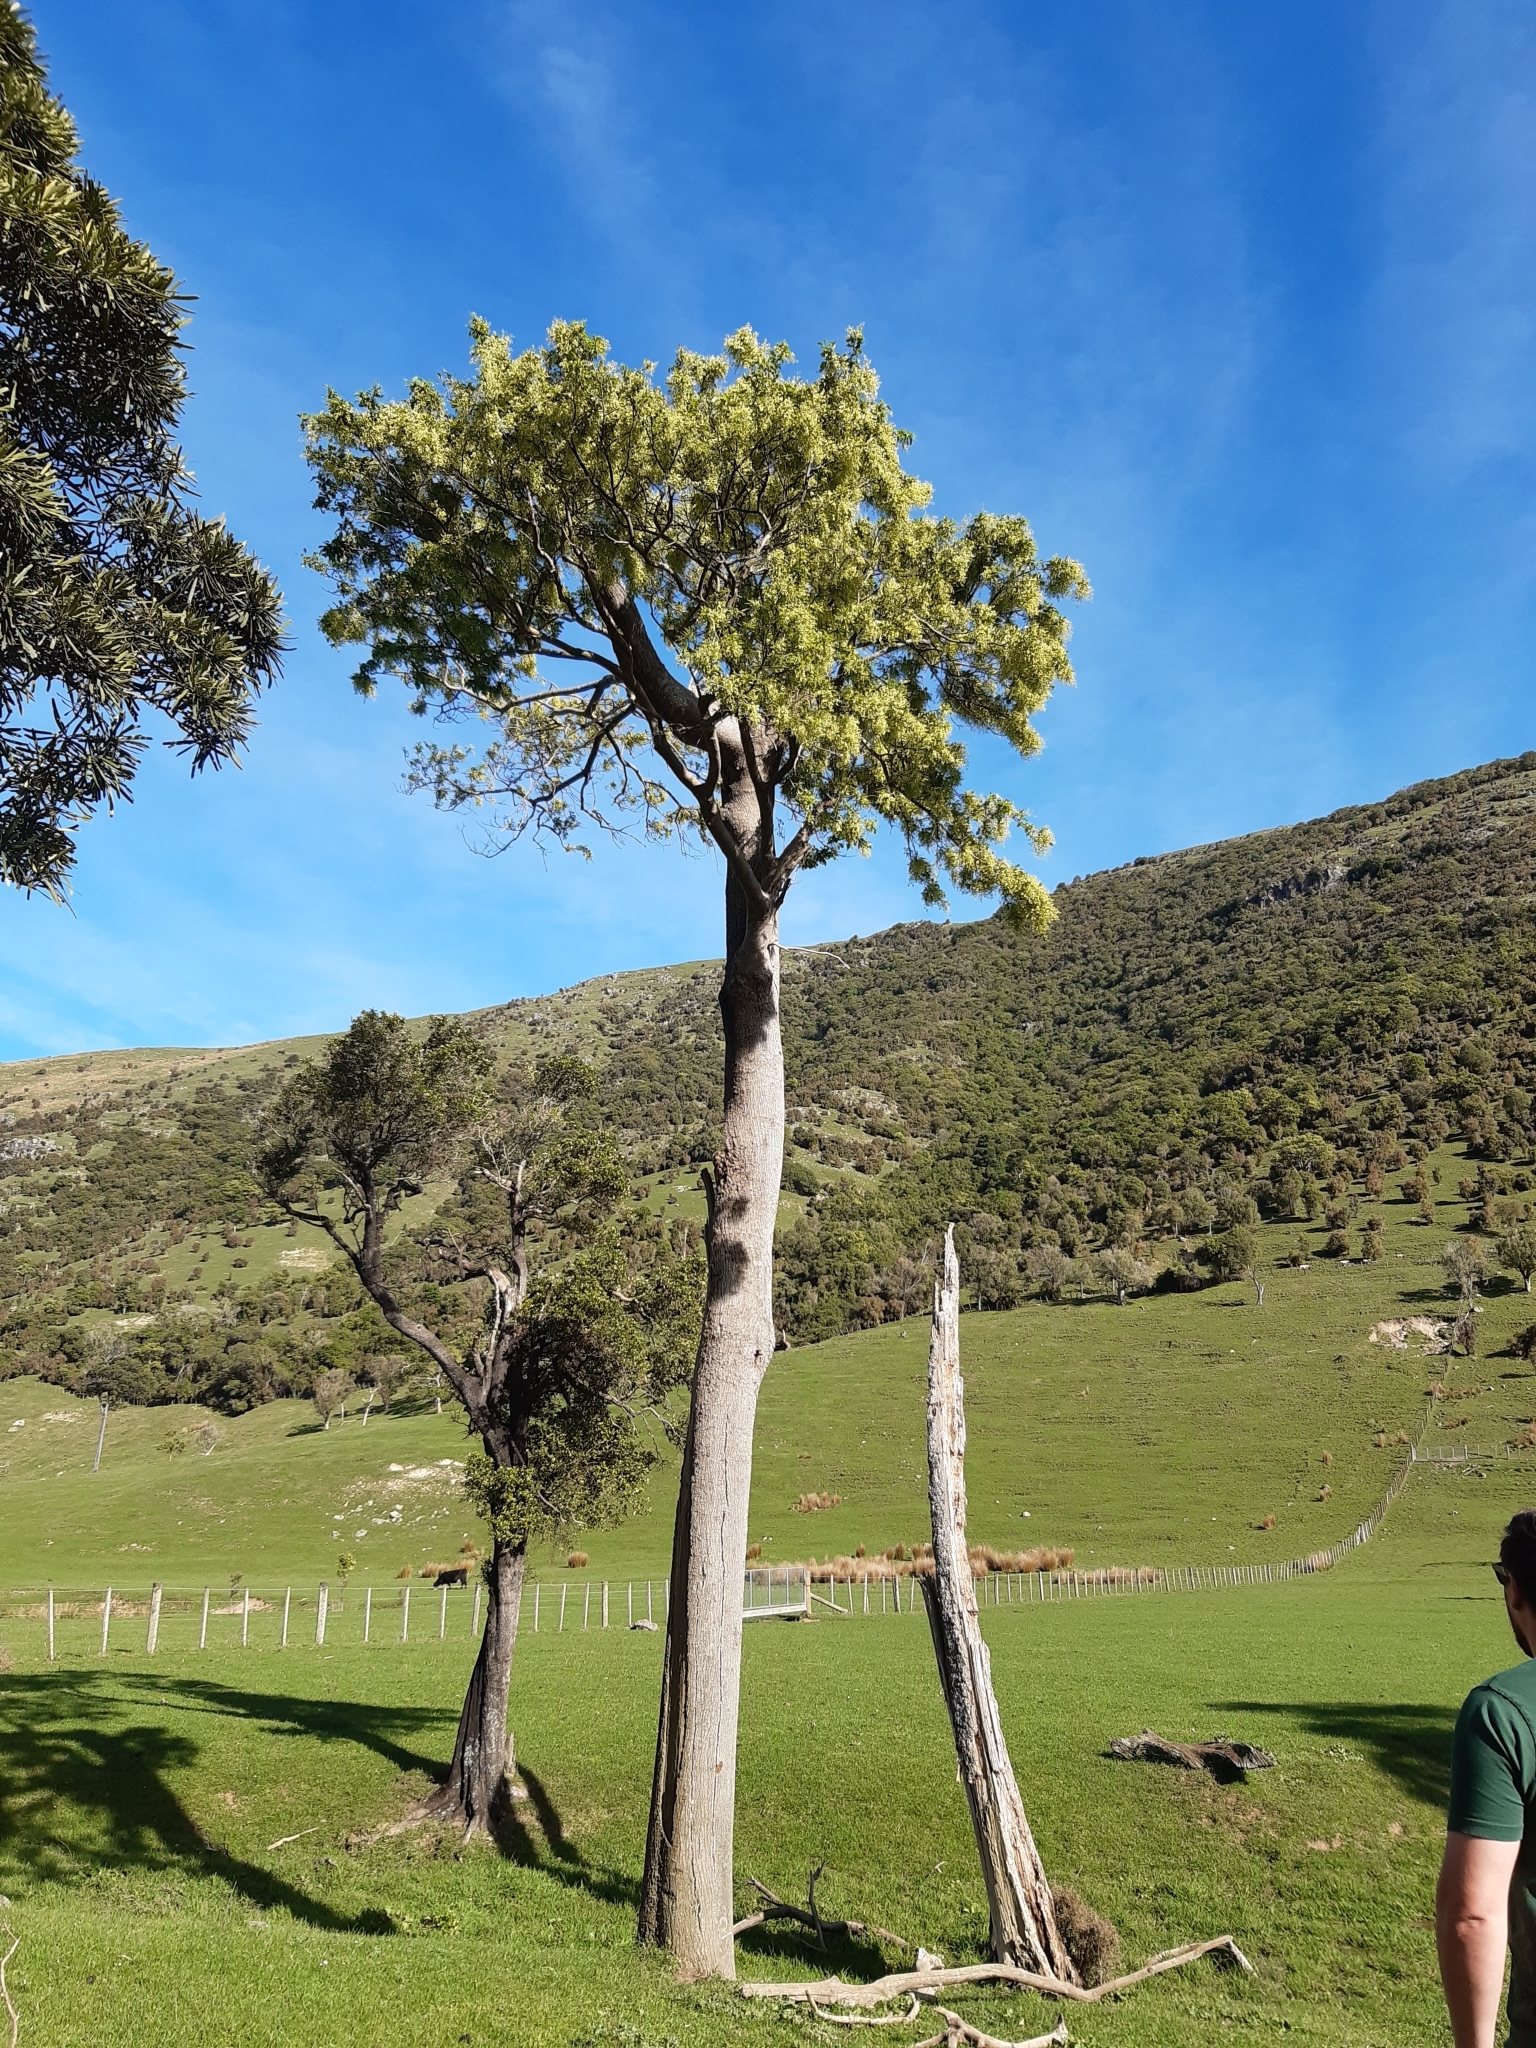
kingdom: Plantae
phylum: Tracheophyta
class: Magnoliopsida
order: Malvales
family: Malvaceae
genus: Plagianthus
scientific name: Plagianthus regius
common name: Manatu
